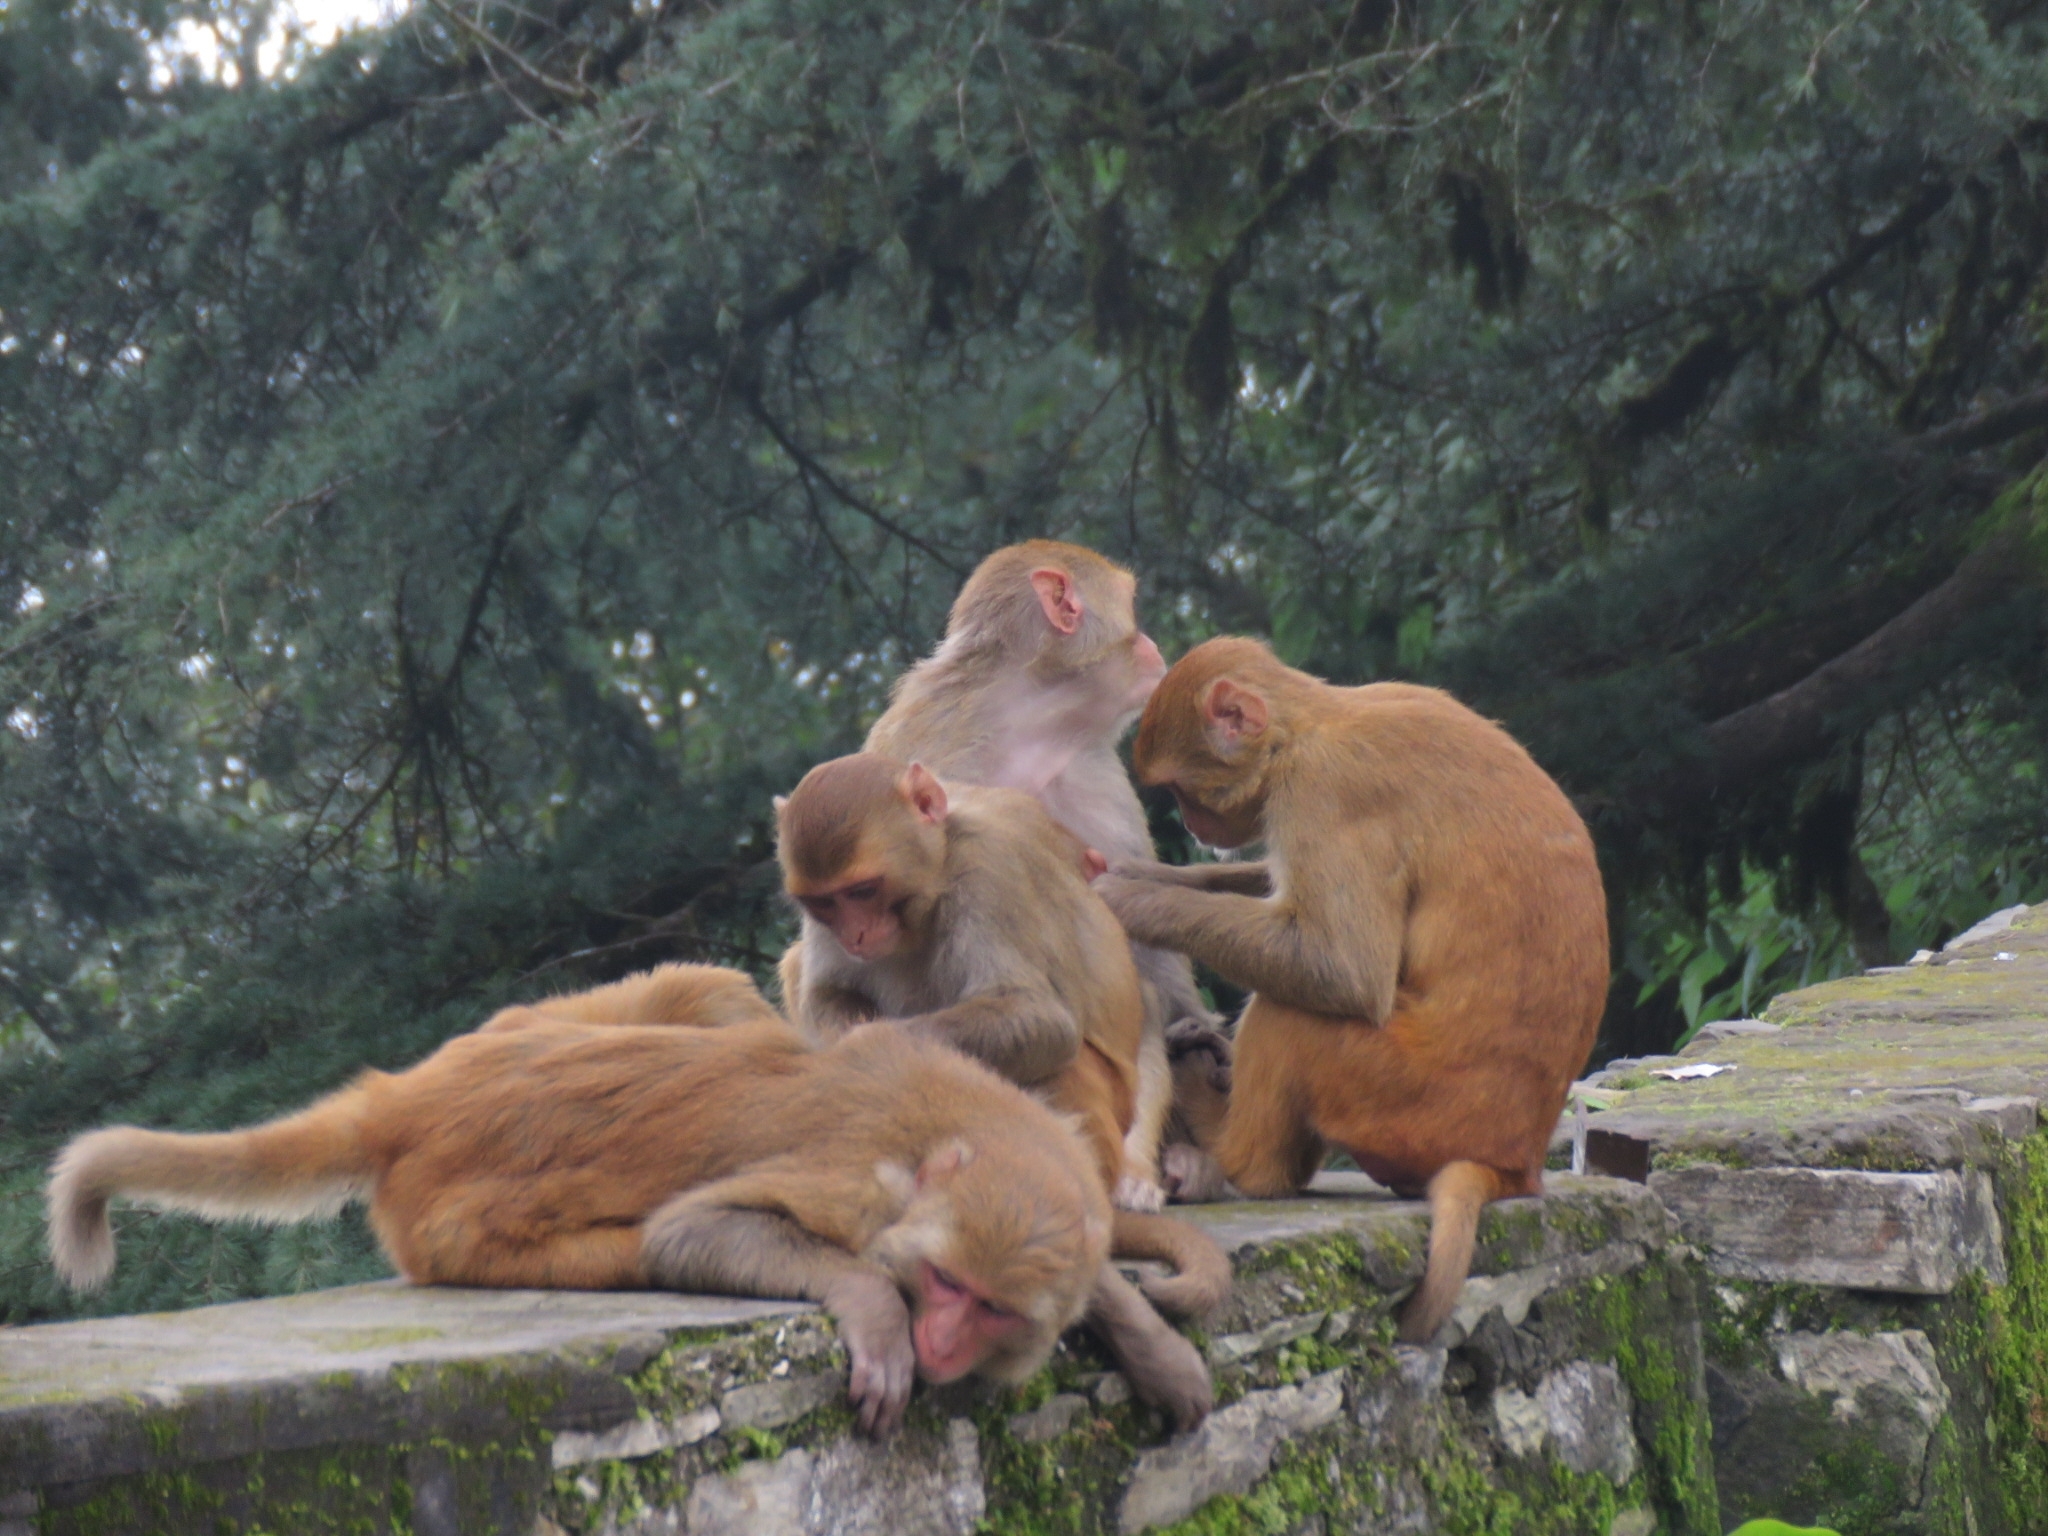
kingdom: Animalia
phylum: Chordata
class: Mammalia
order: Primates
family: Cercopithecidae
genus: Macaca
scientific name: Macaca mulatta
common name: Rhesus monkey
